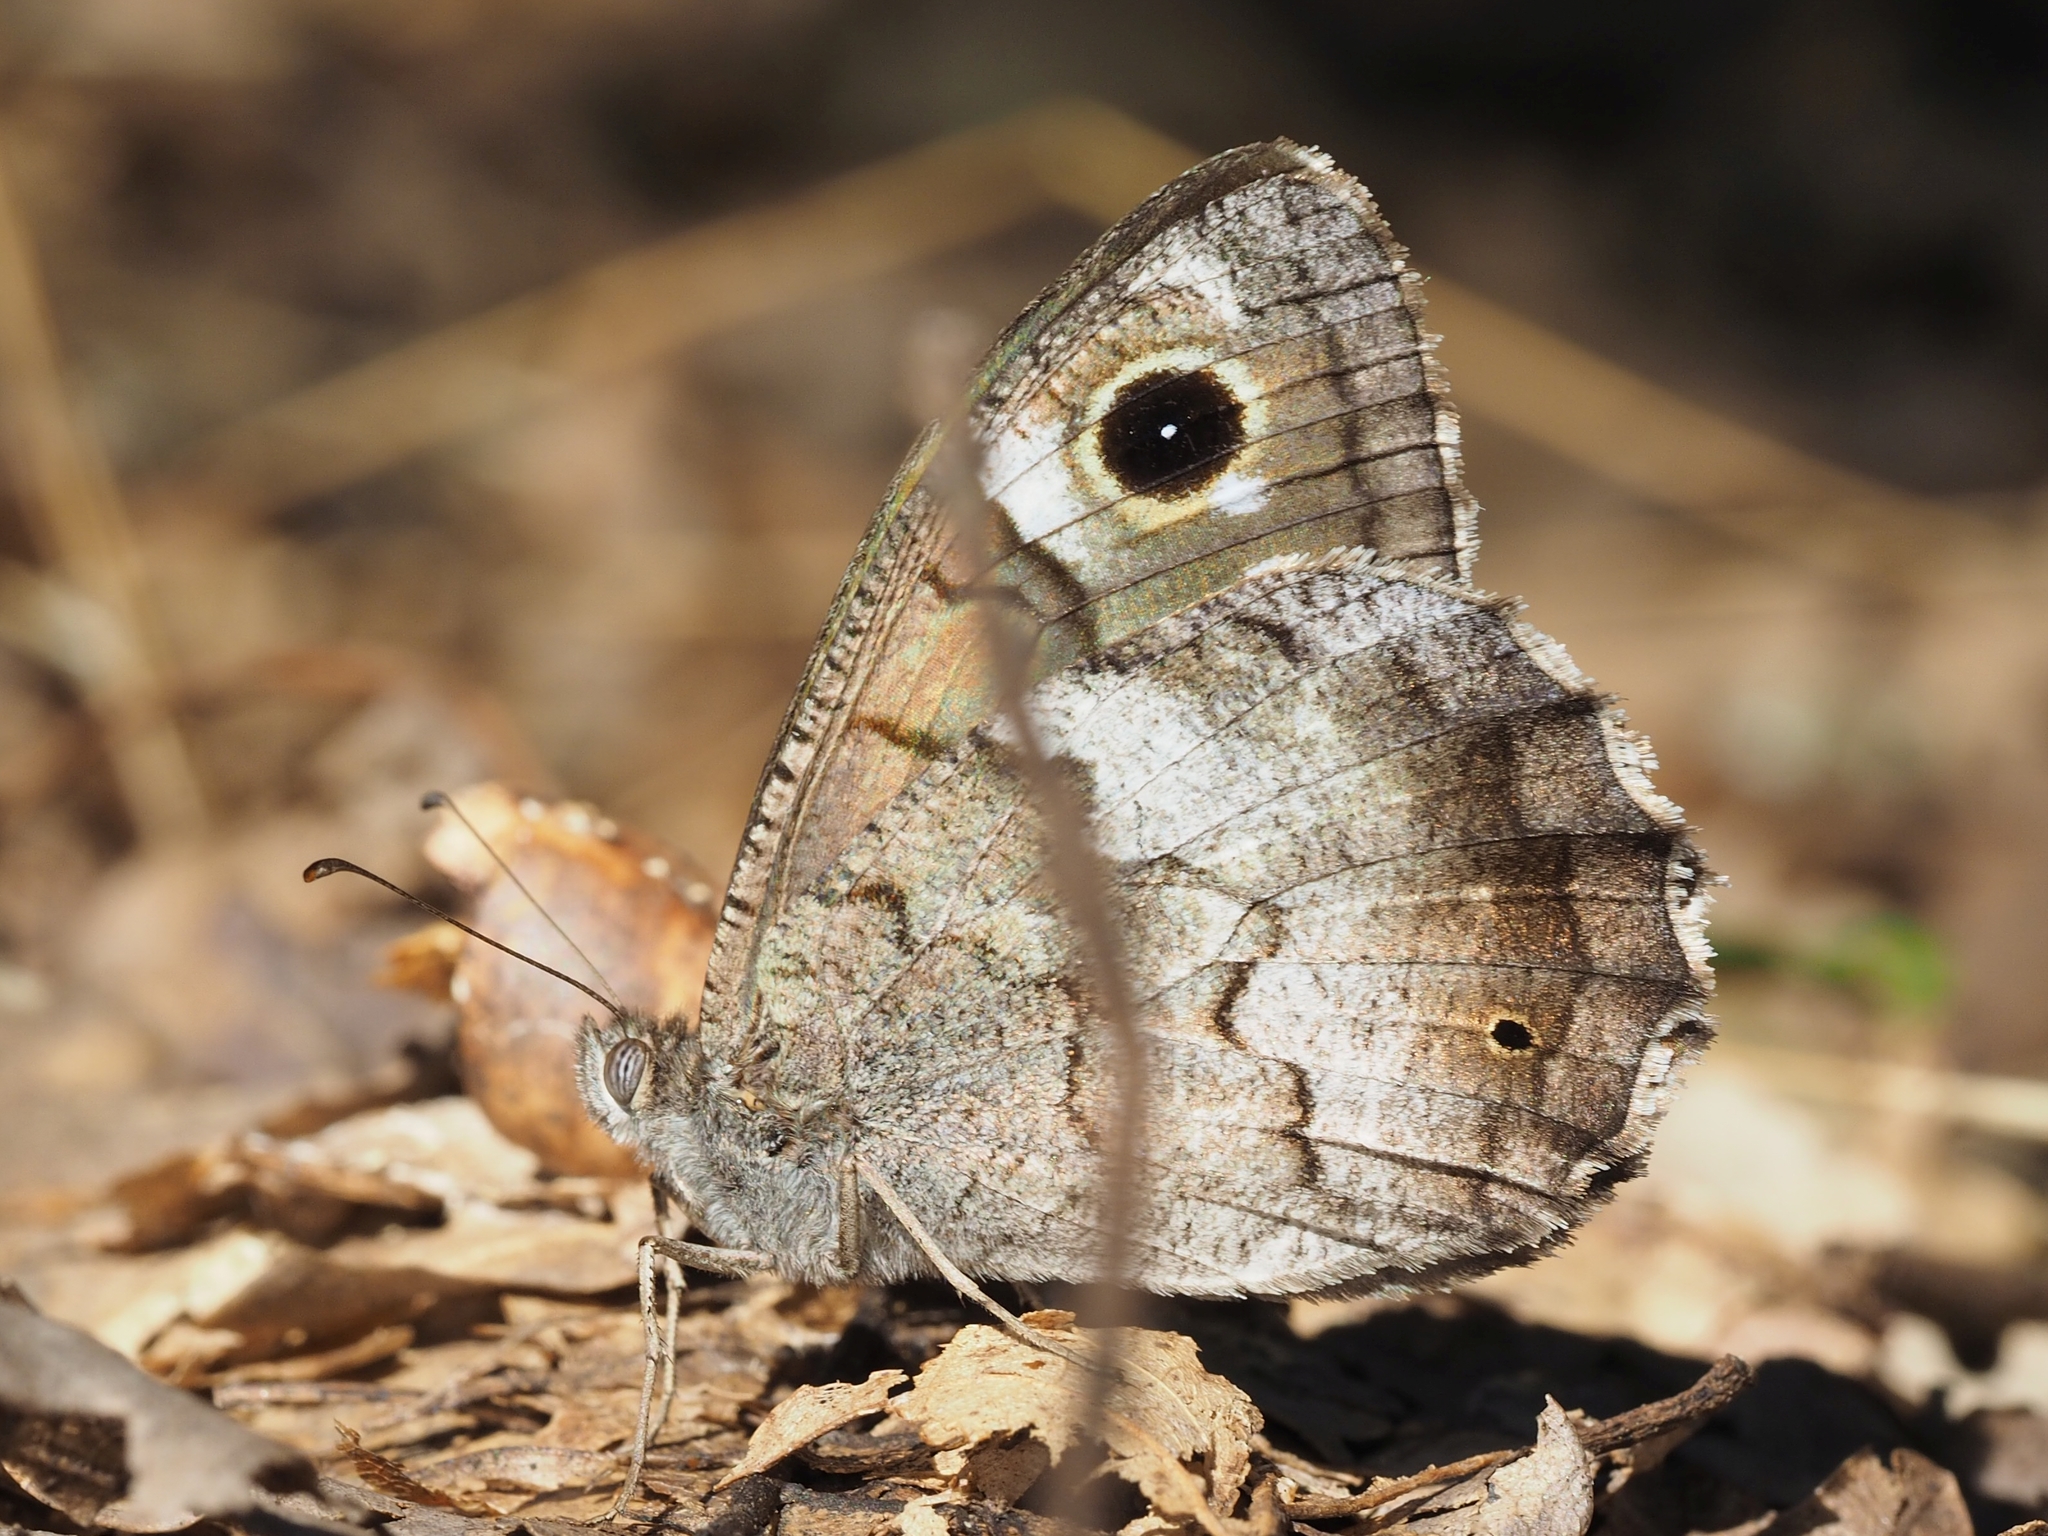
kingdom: Animalia
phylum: Arthropoda
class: Insecta
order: Lepidoptera
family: Nymphalidae
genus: Hipparchia
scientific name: Hipparchia statilinus
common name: Tree grayling
